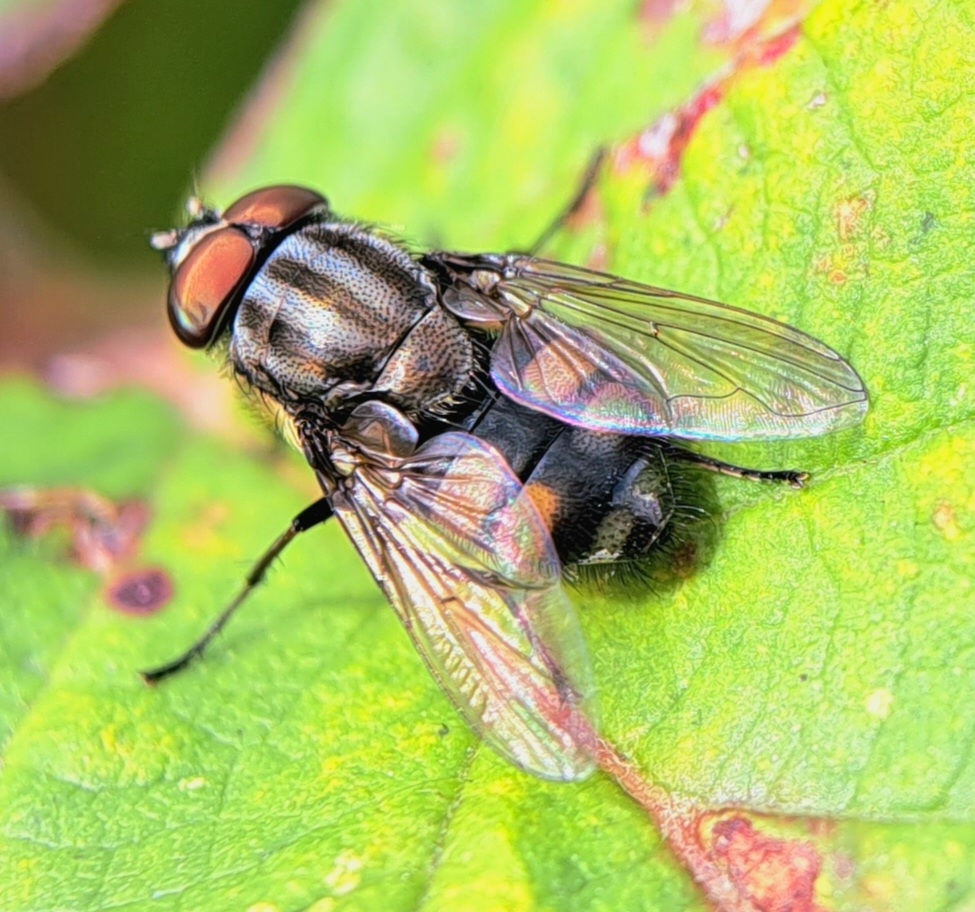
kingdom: Animalia
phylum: Arthropoda
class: Insecta
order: Diptera
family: Calliphoridae
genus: Stomorhina
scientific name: Stomorhina lunata
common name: Locust blowfly
